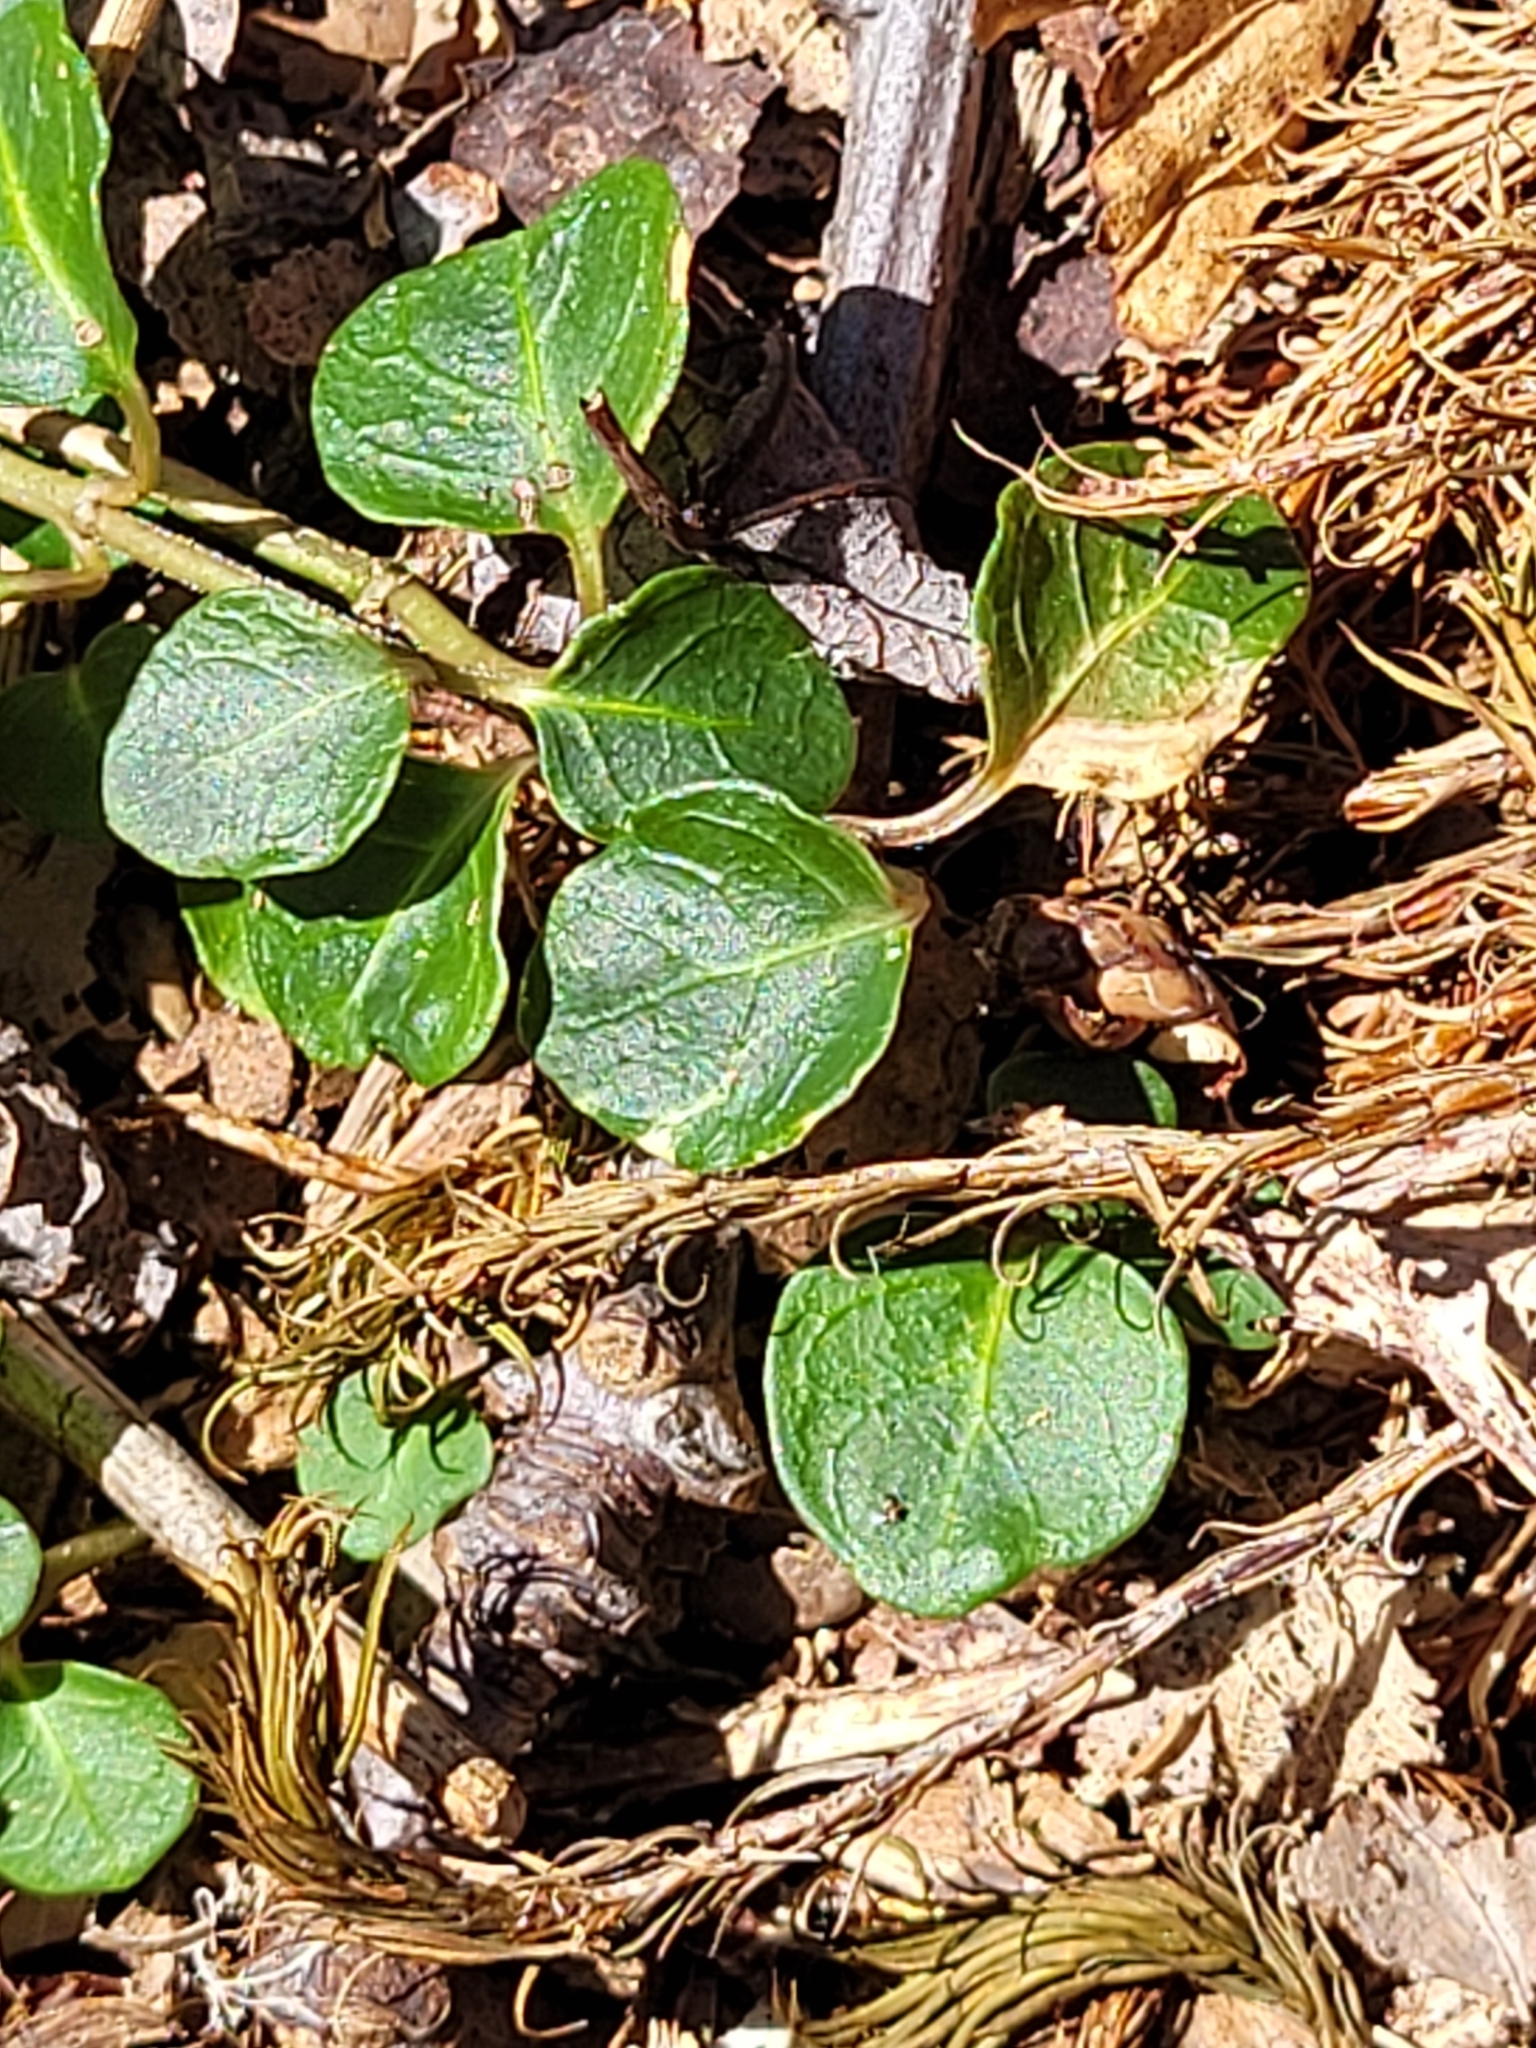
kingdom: Plantae
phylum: Tracheophyta
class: Magnoliopsida
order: Gentianales
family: Rubiaceae
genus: Mitchella
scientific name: Mitchella repens
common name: Partridge-berry
